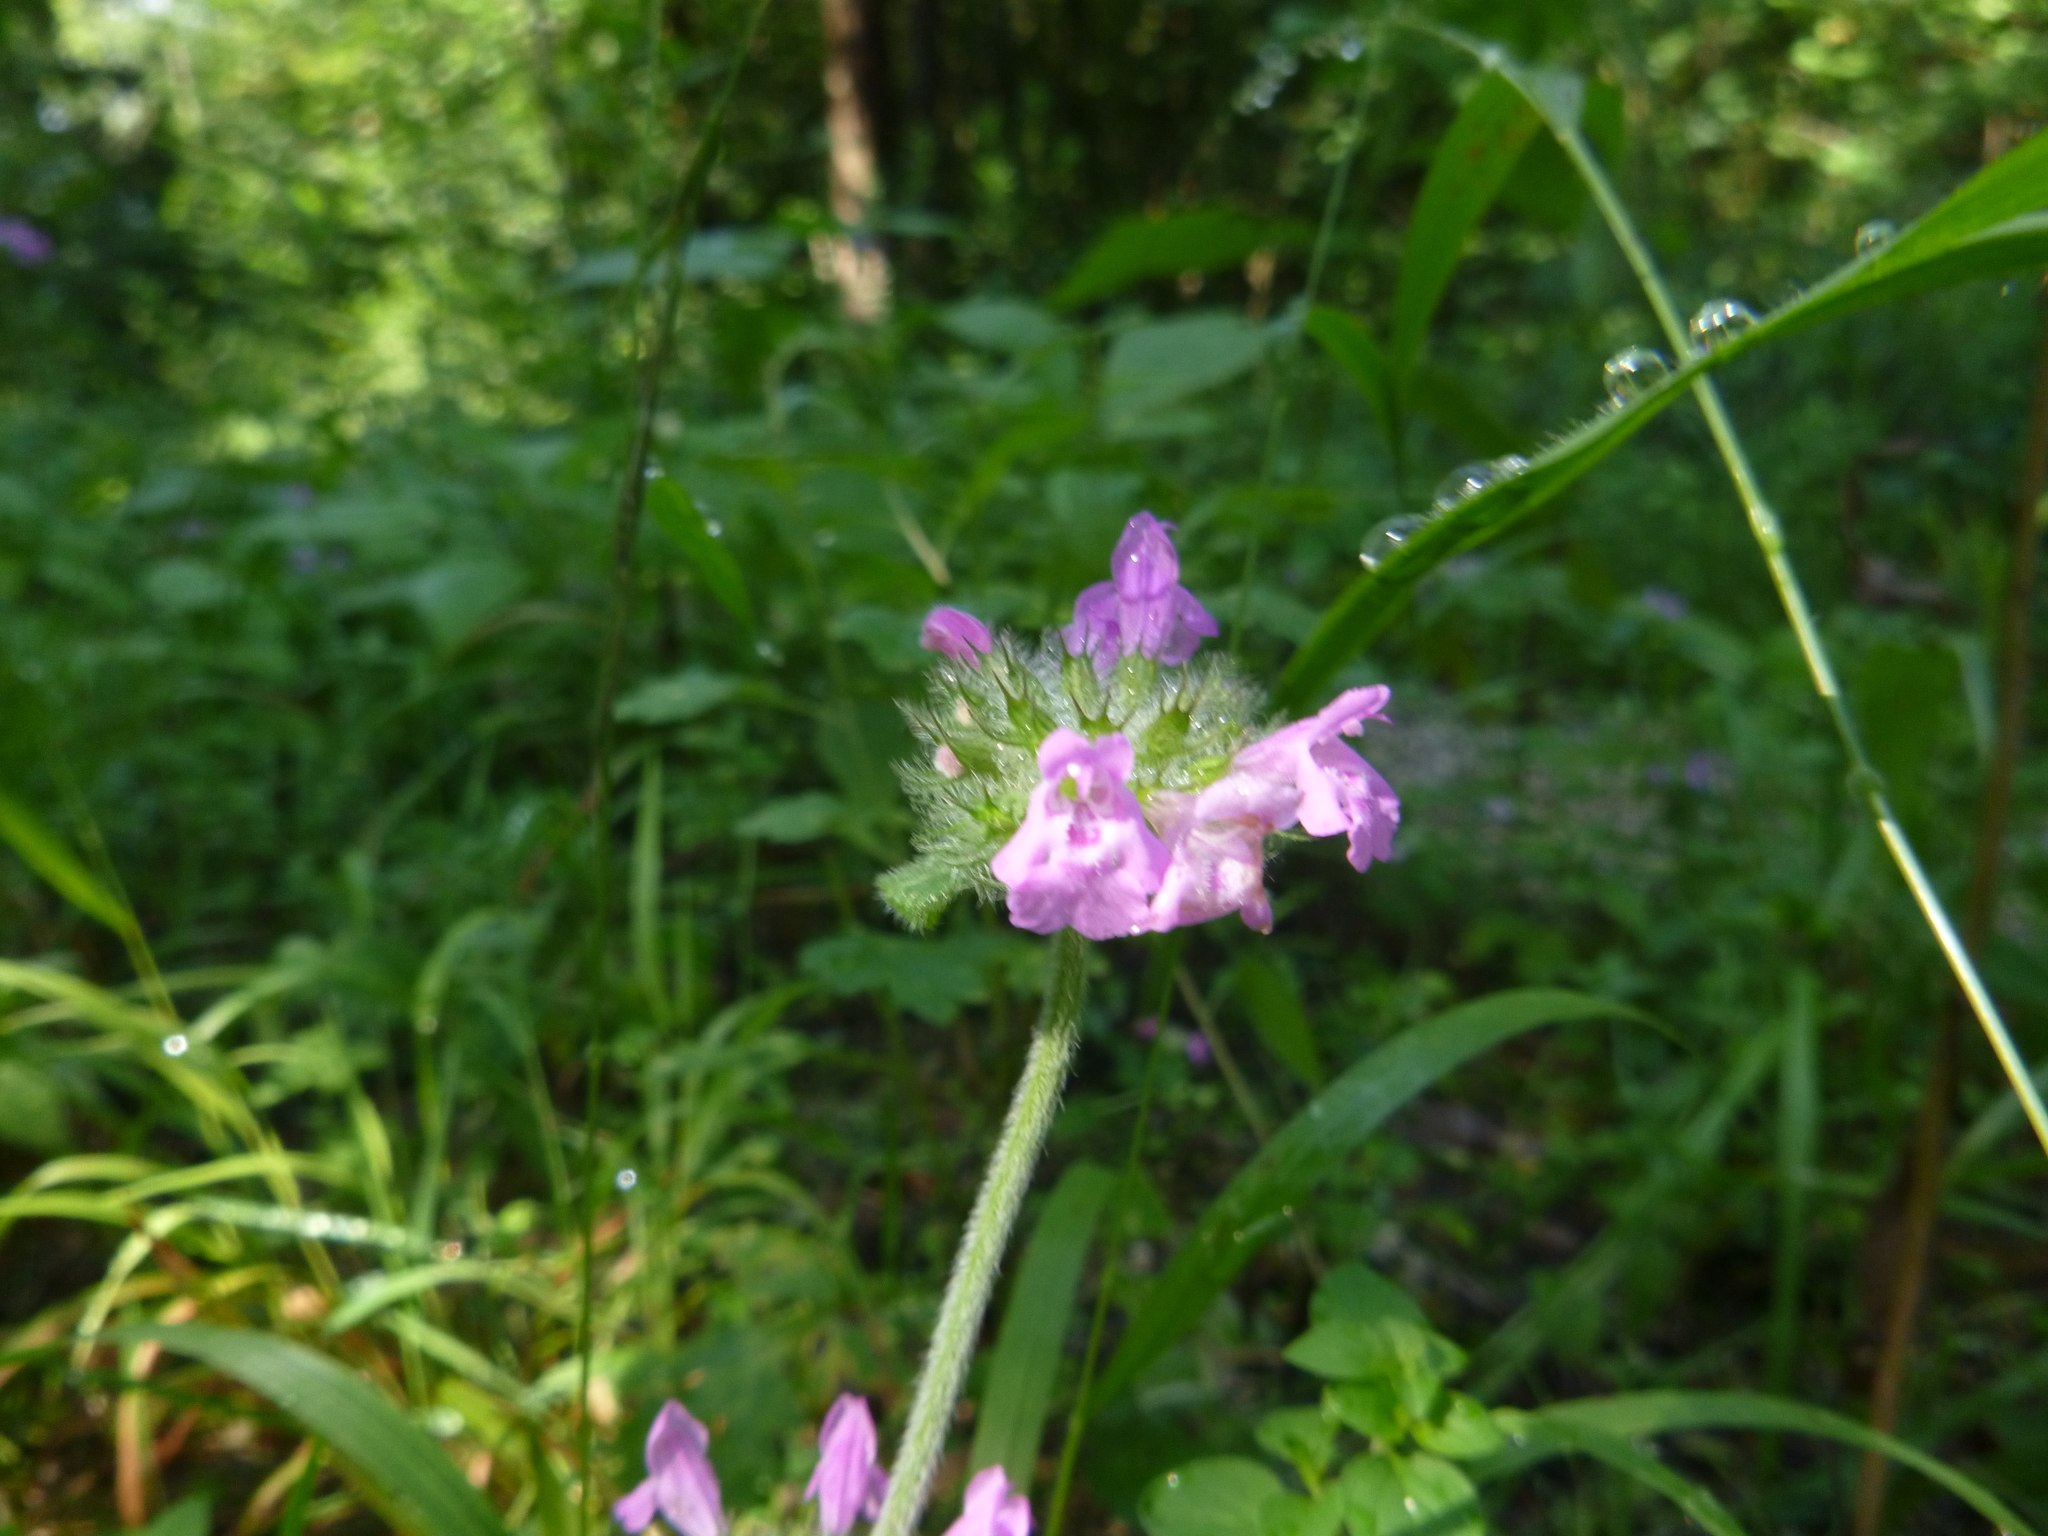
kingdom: Plantae
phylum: Tracheophyta
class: Magnoliopsida
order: Lamiales
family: Lamiaceae
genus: Clinopodium
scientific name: Clinopodium vulgare
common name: Wild basil
